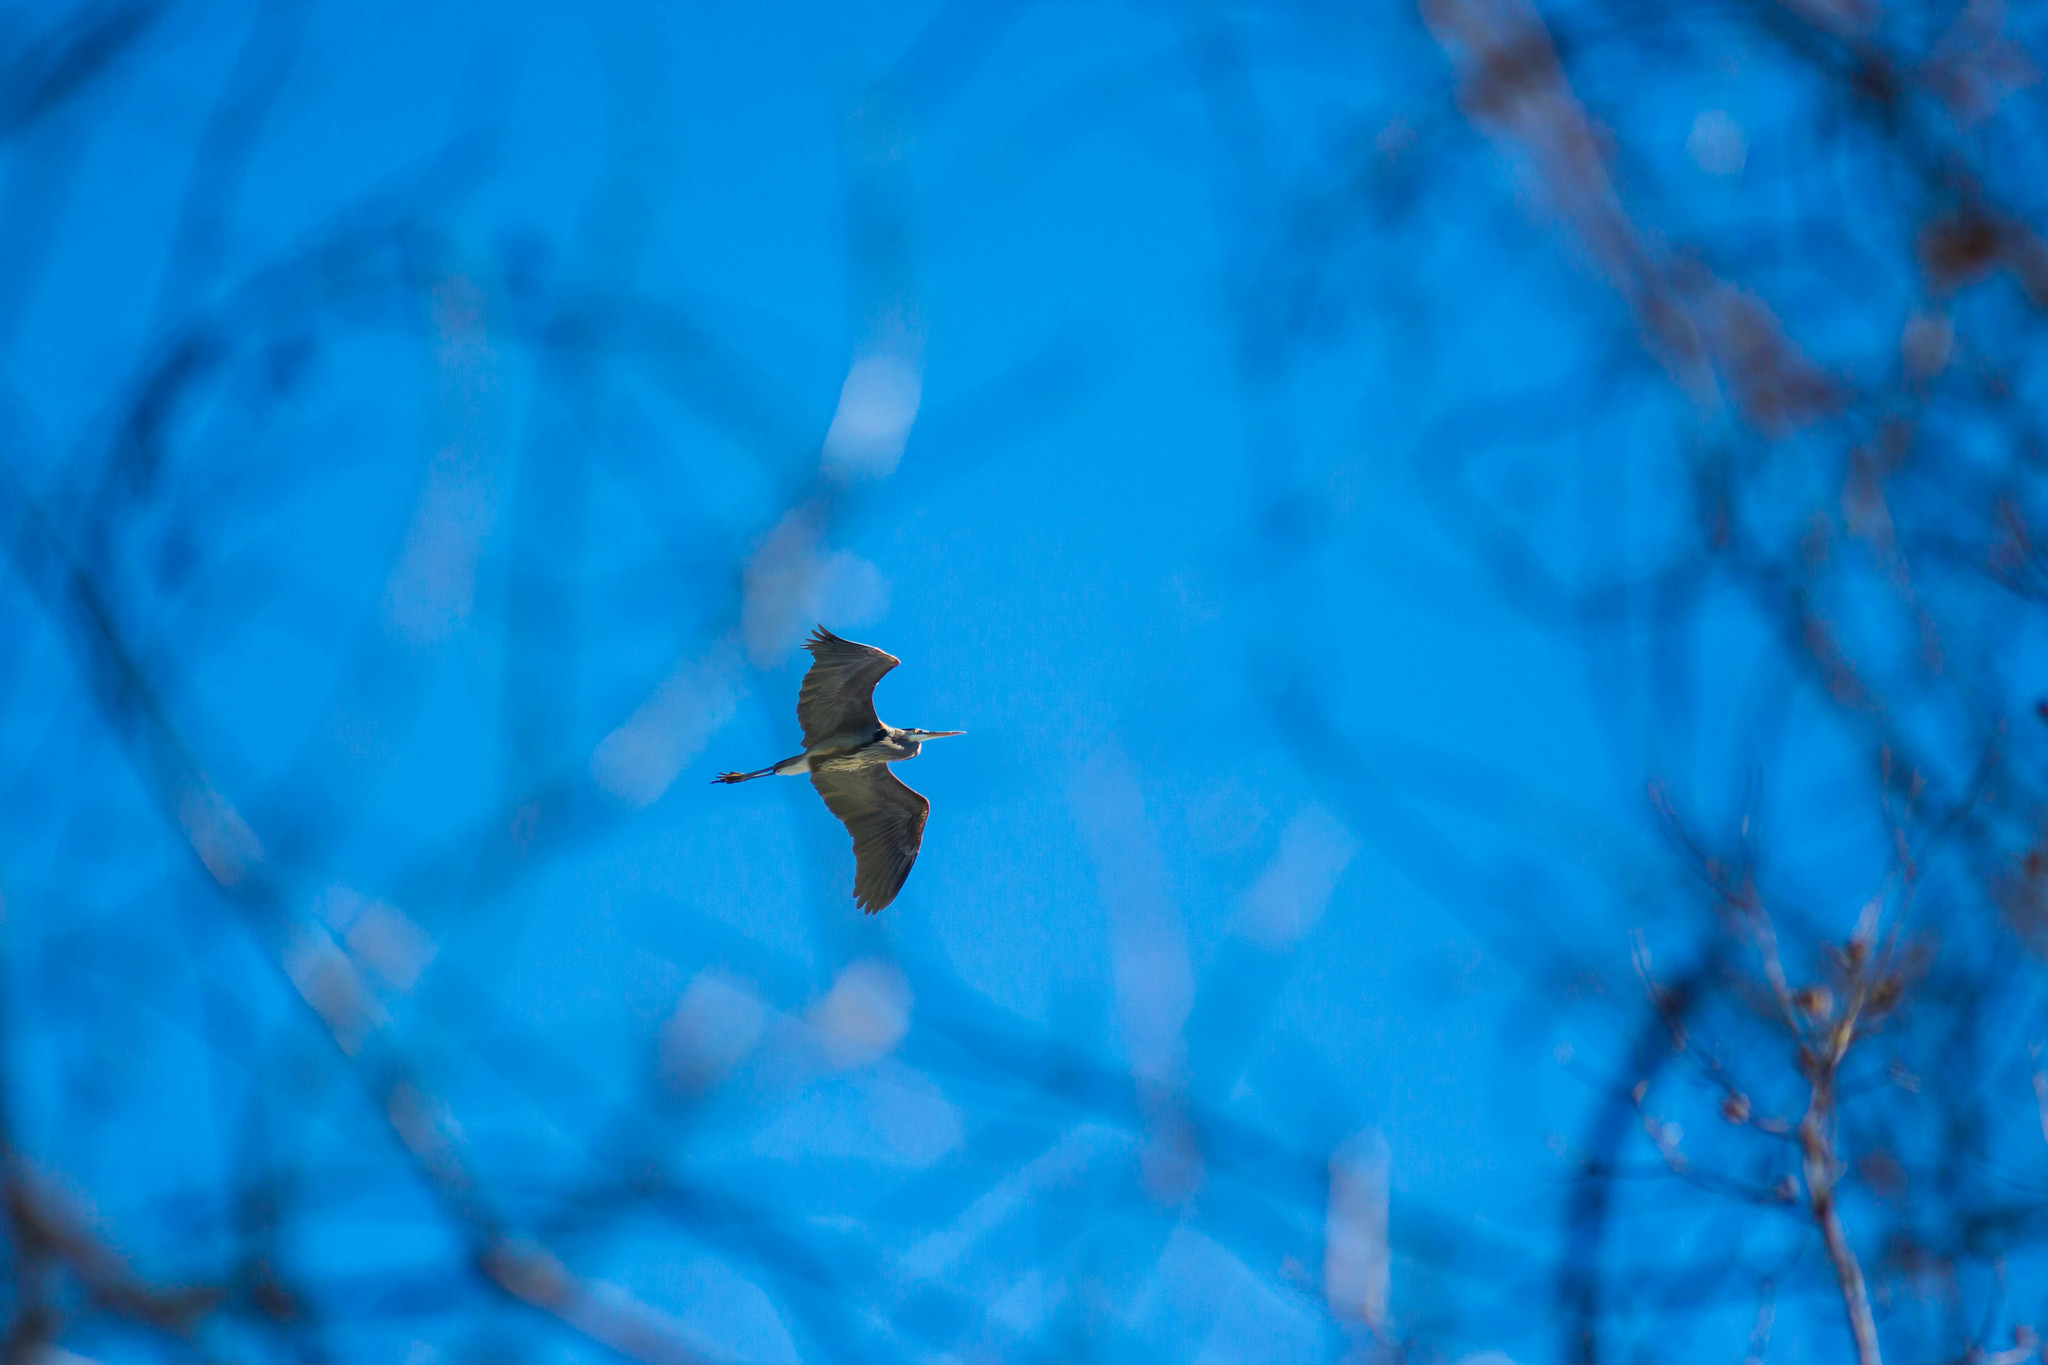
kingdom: Animalia
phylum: Chordata
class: Aves
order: Pelecaniformes
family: Ardeidae
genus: Ardea
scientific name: Ardea herodias
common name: Great blue heron
